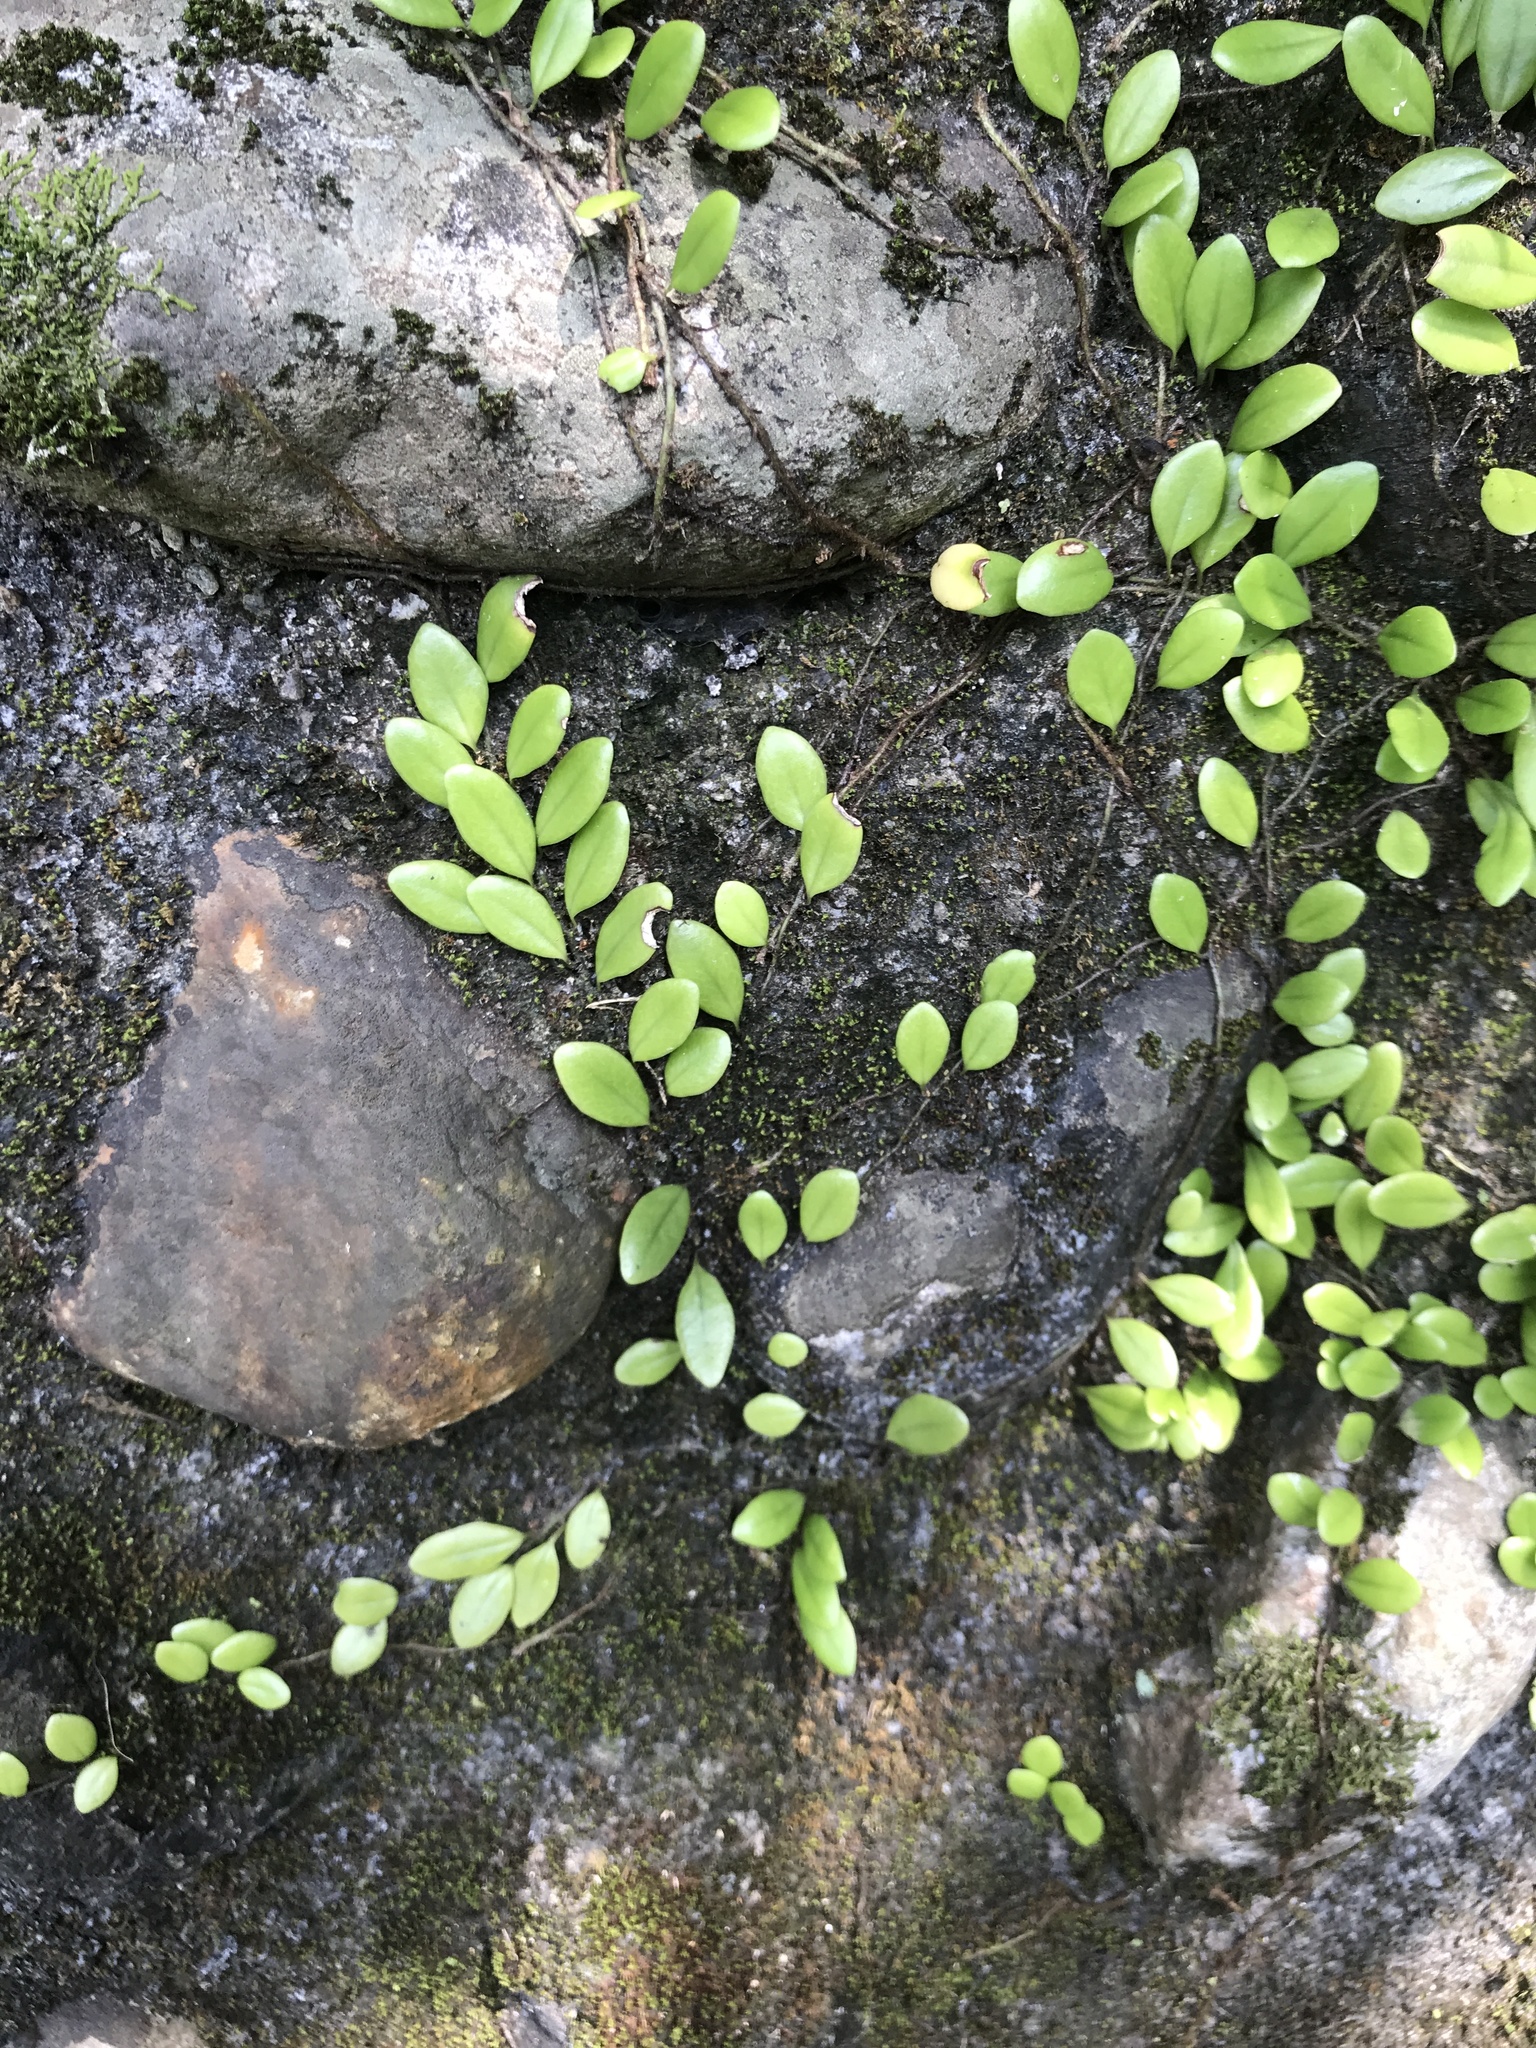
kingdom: Plantae
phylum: Tracheophyta
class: Polypodiopsida
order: Polypodiales
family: Polypodiaceae
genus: Lepisorus
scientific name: Lepisorus microphyllus
